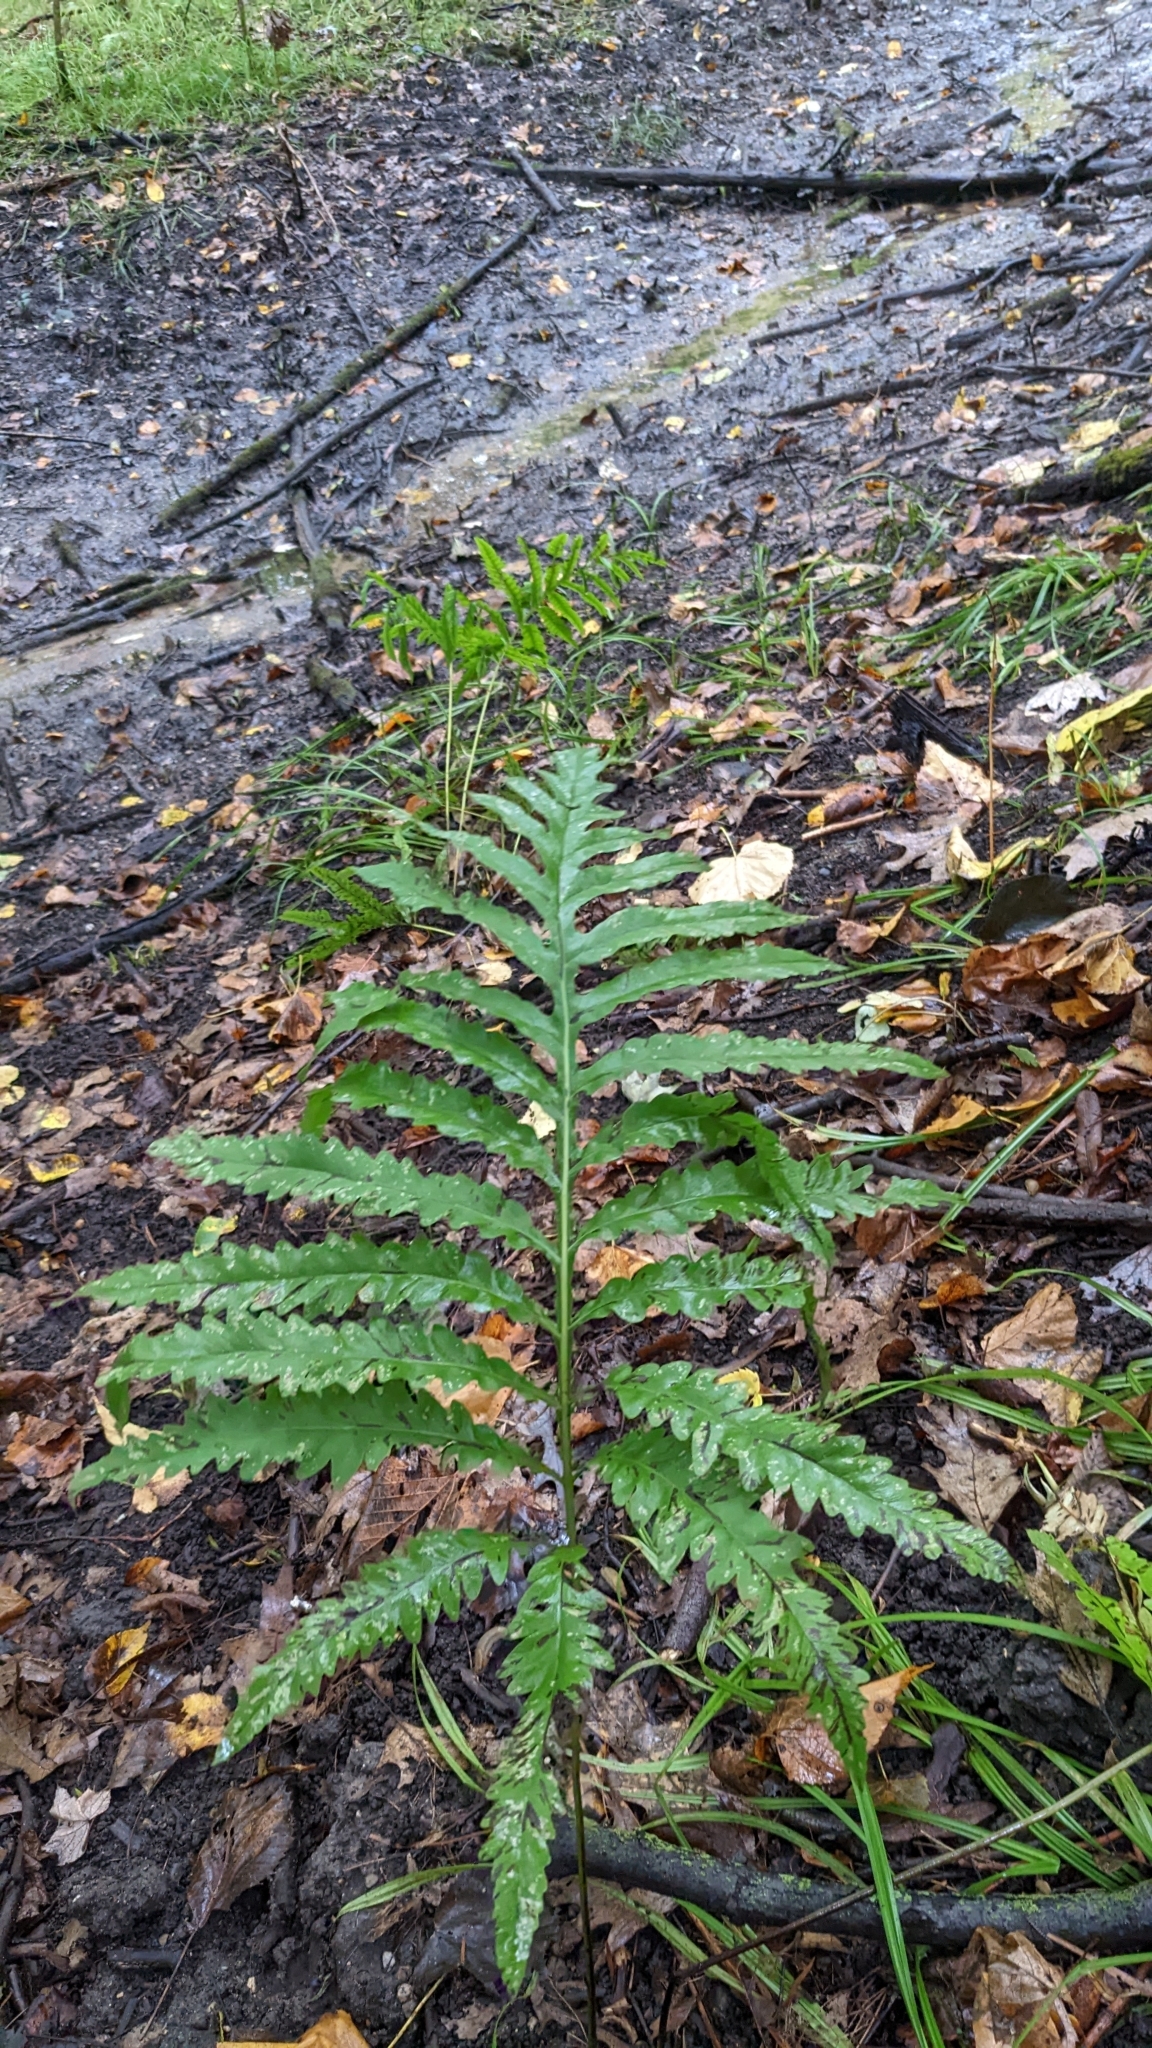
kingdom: Plantae
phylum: Tracheophyta
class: Polypodiopsida
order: Polypodiales
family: Onocleaceae
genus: Onoclea
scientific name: Onoclea sensibilis
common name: Sensitive fern
